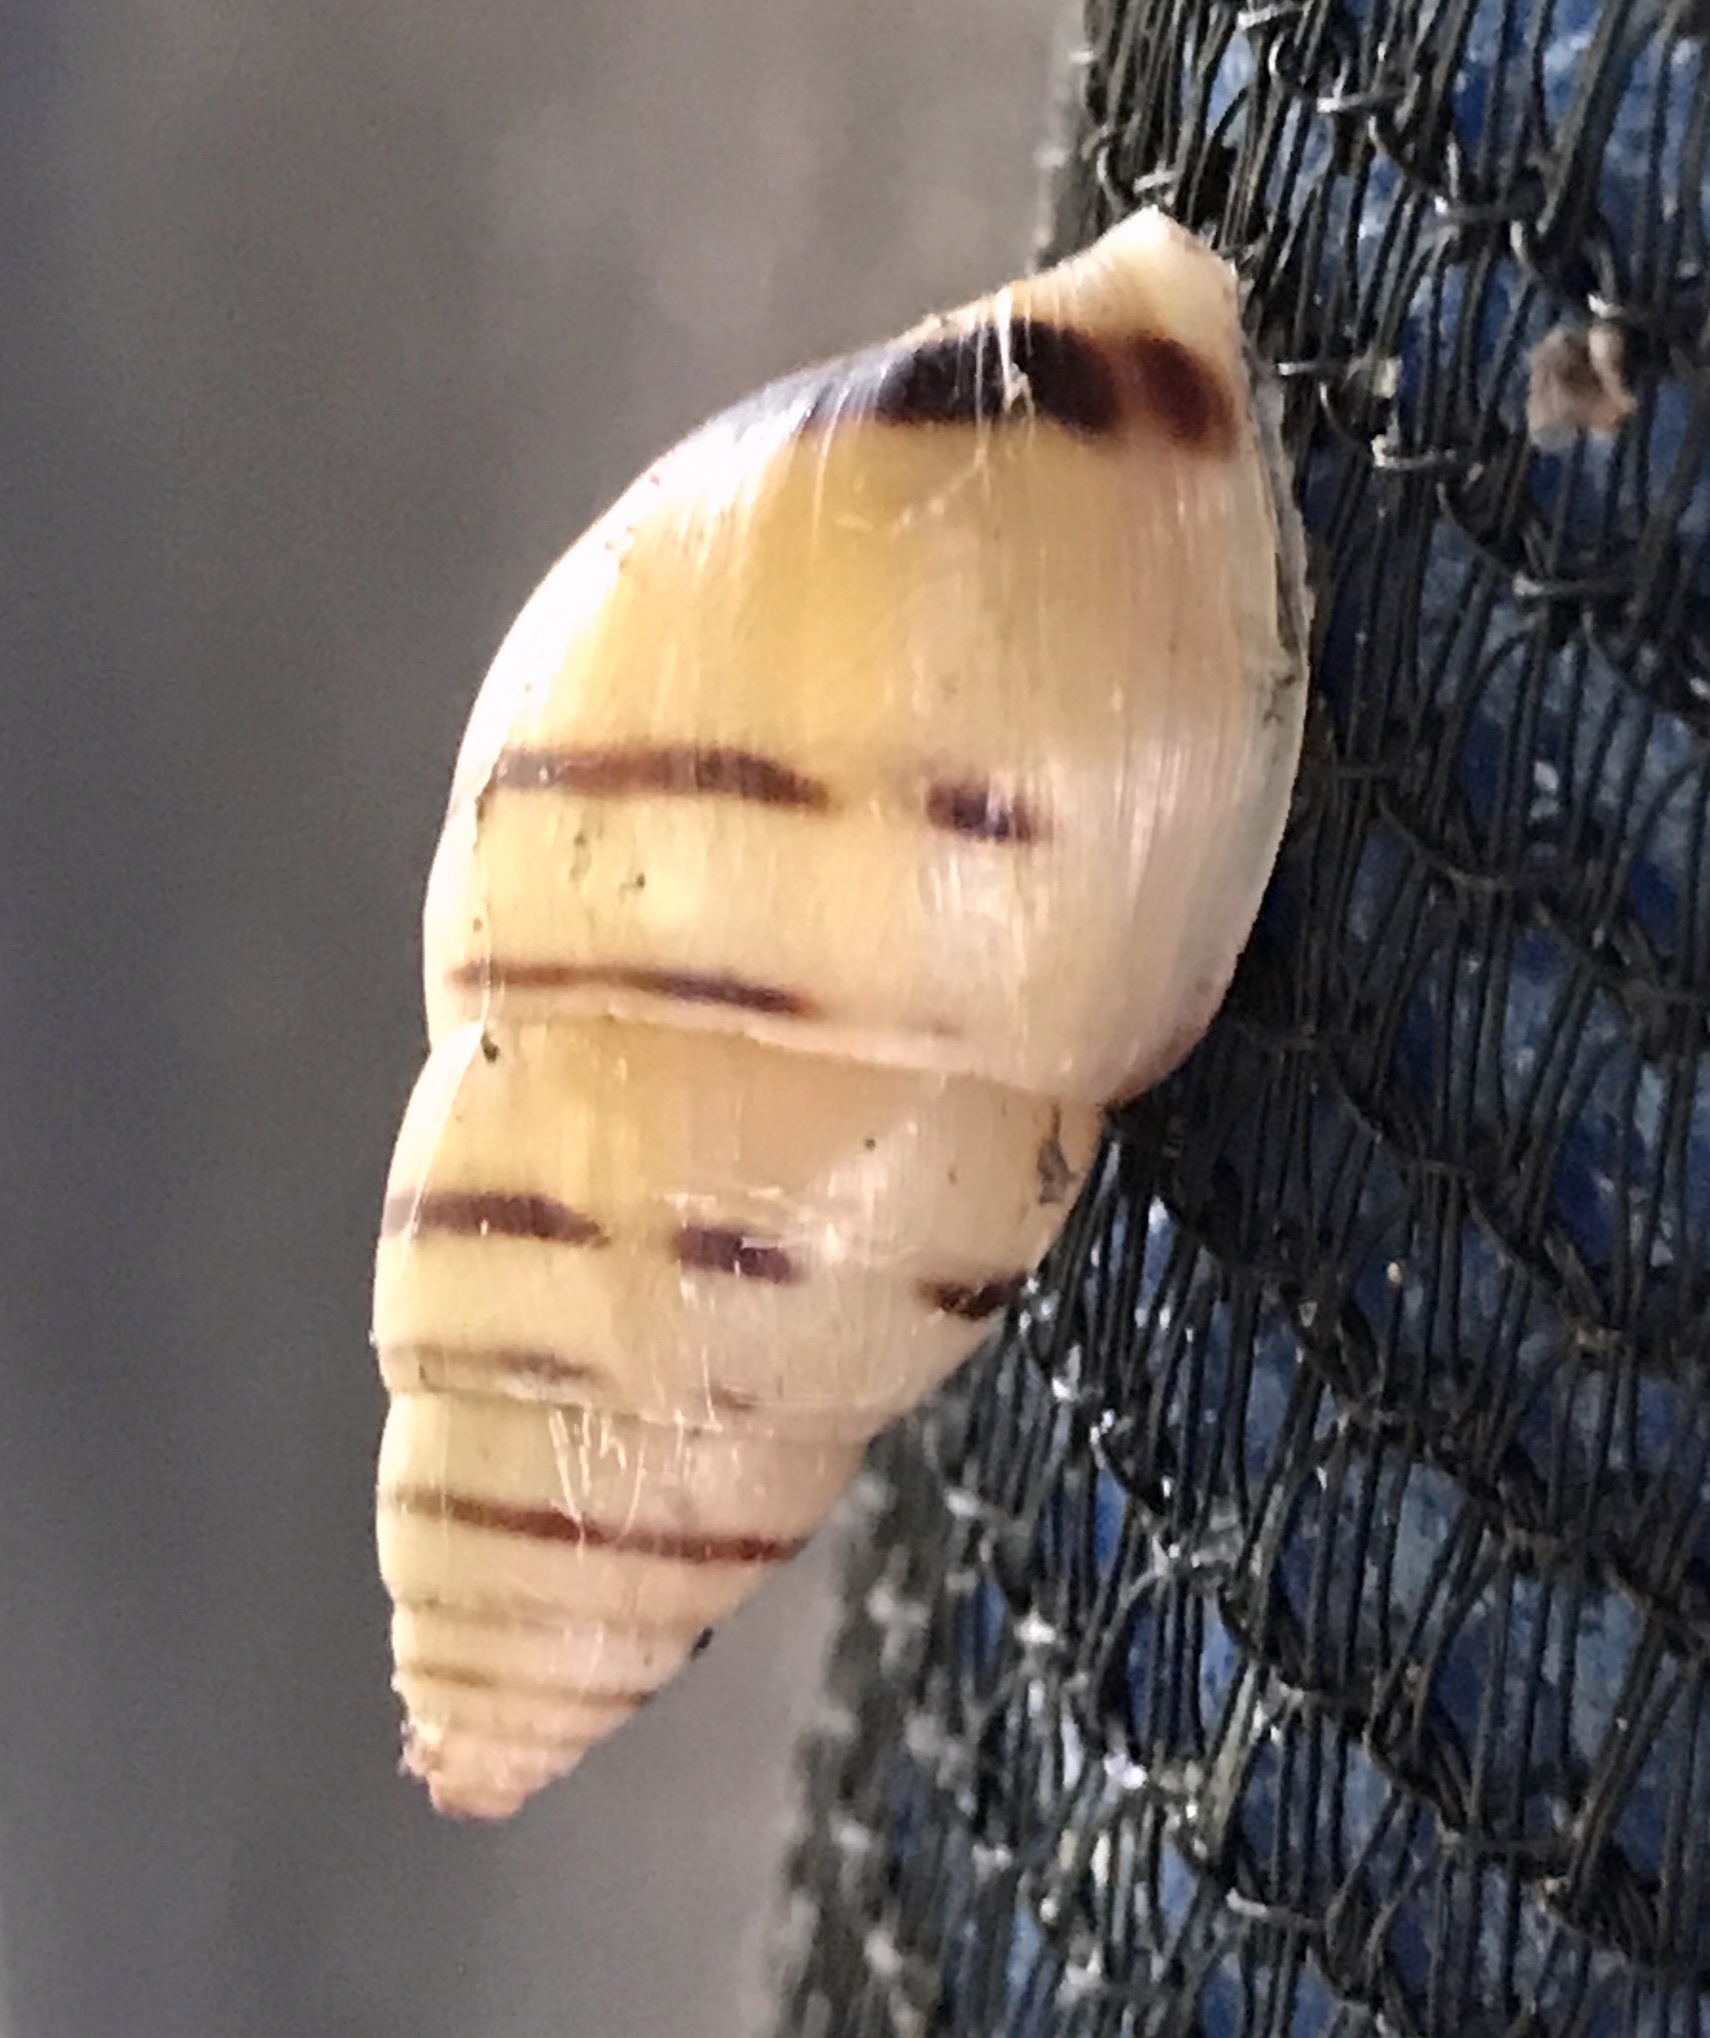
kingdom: Animalia
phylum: Mollusca
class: Gastropoda
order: Stylommatophora
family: Bulimulidae
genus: Drymaeus
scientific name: Drymaeus
